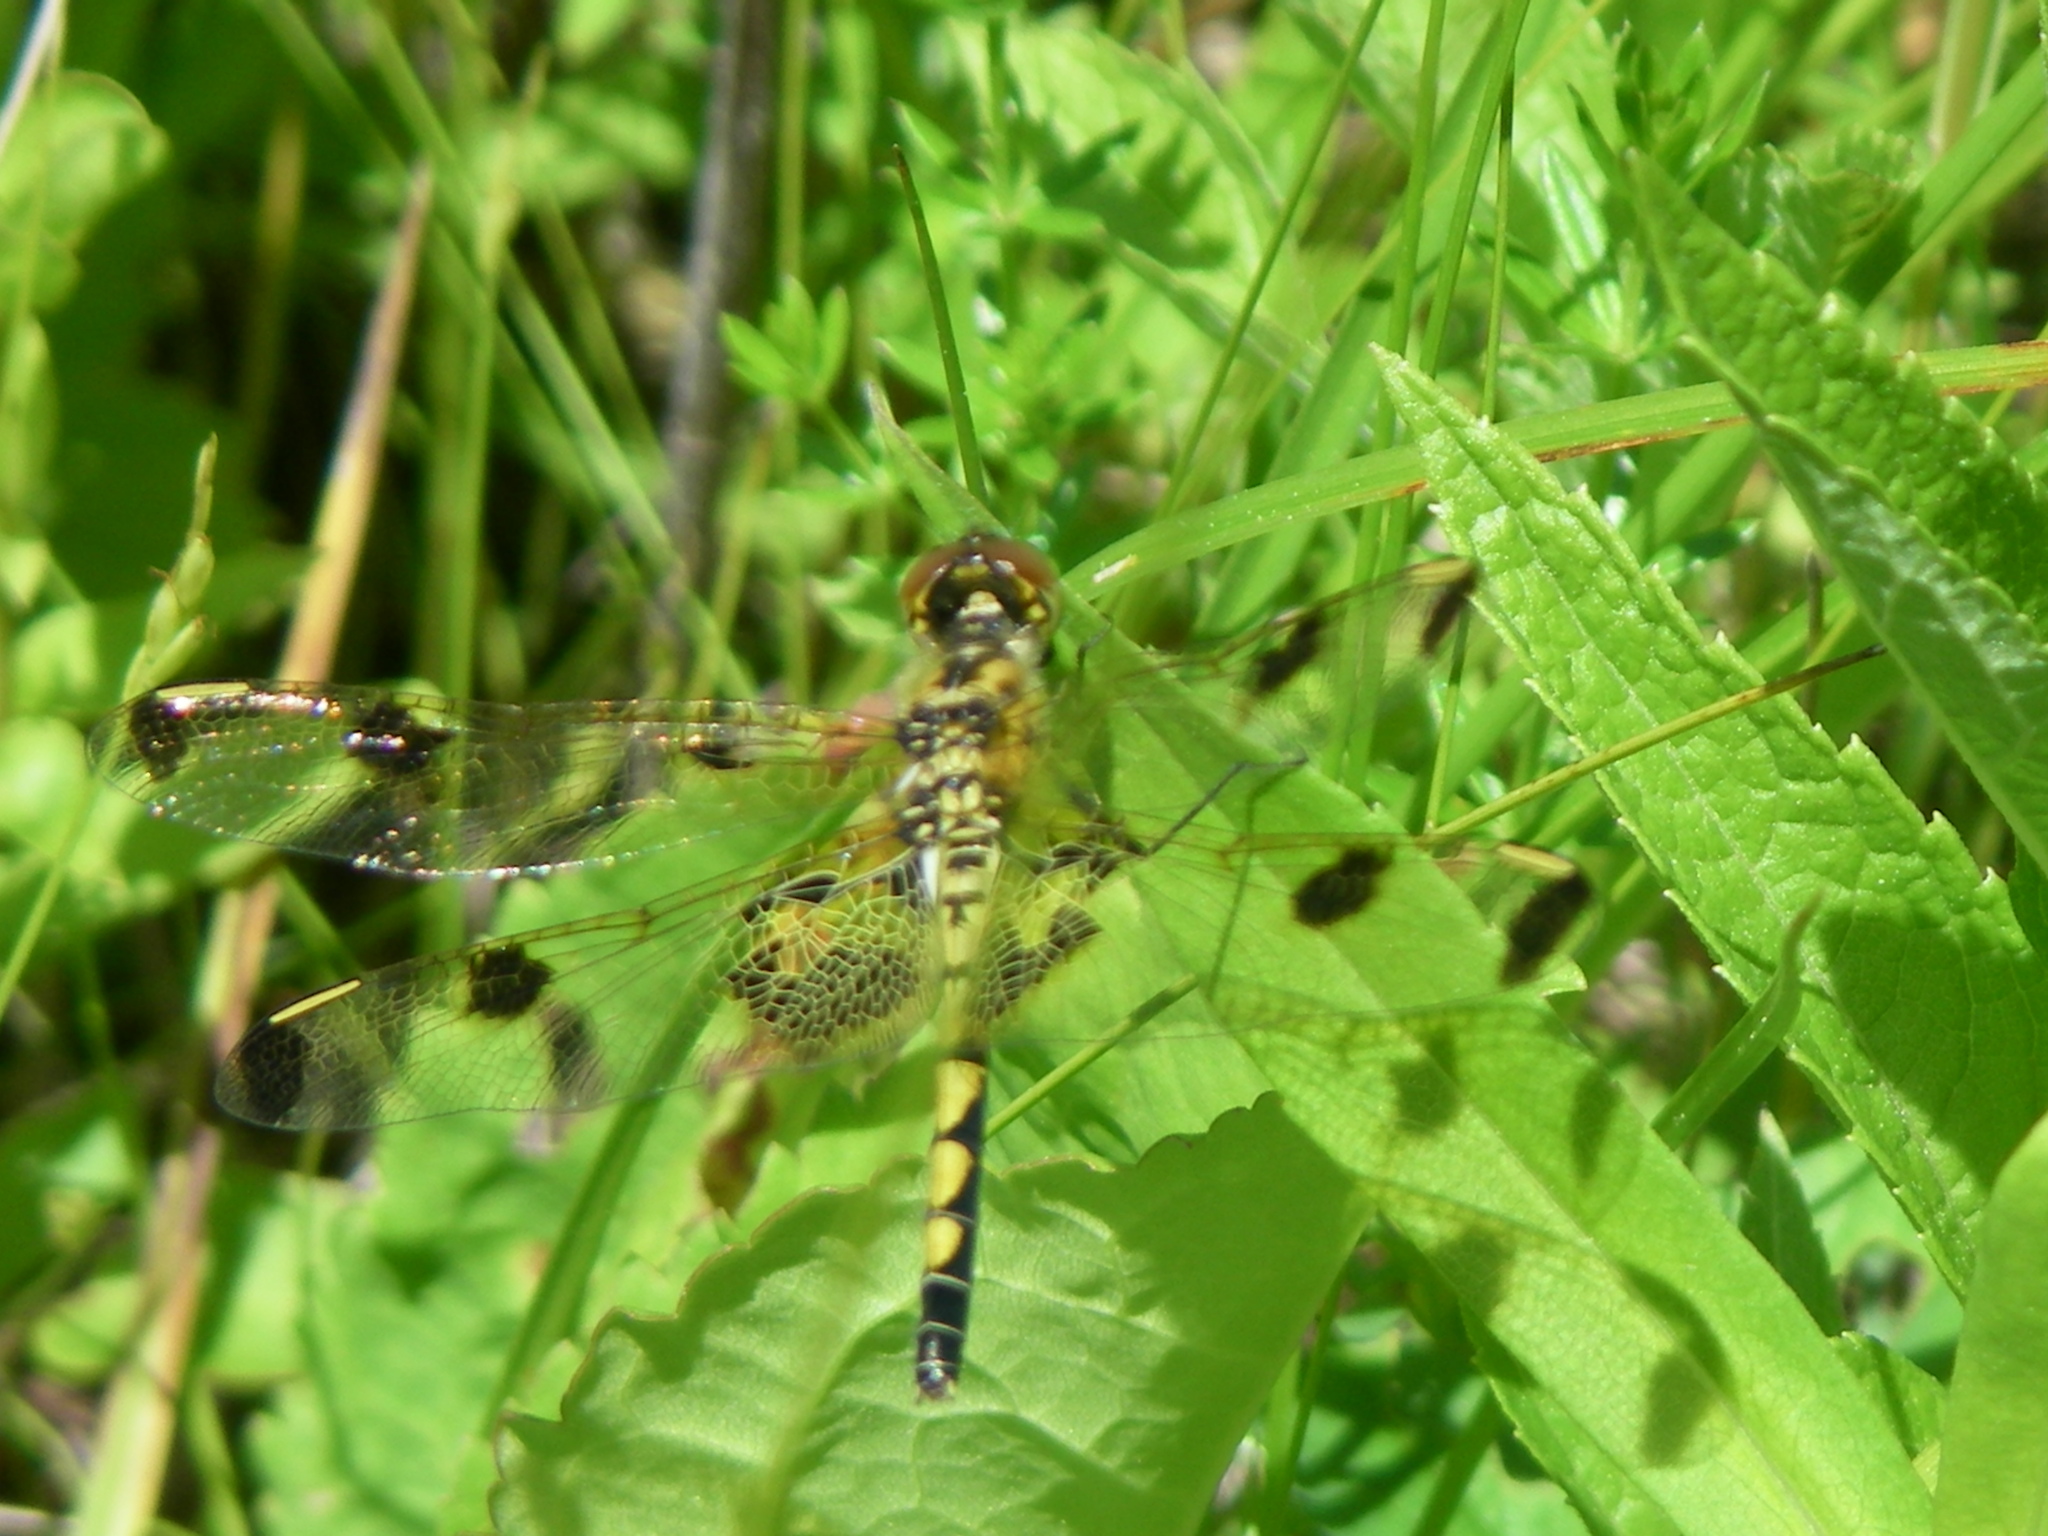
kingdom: Animalia
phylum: Arthropoda
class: Insecta
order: Odonata
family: Libellulidae
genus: Celithemis
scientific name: Celithemis elisa
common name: Calico pennant
